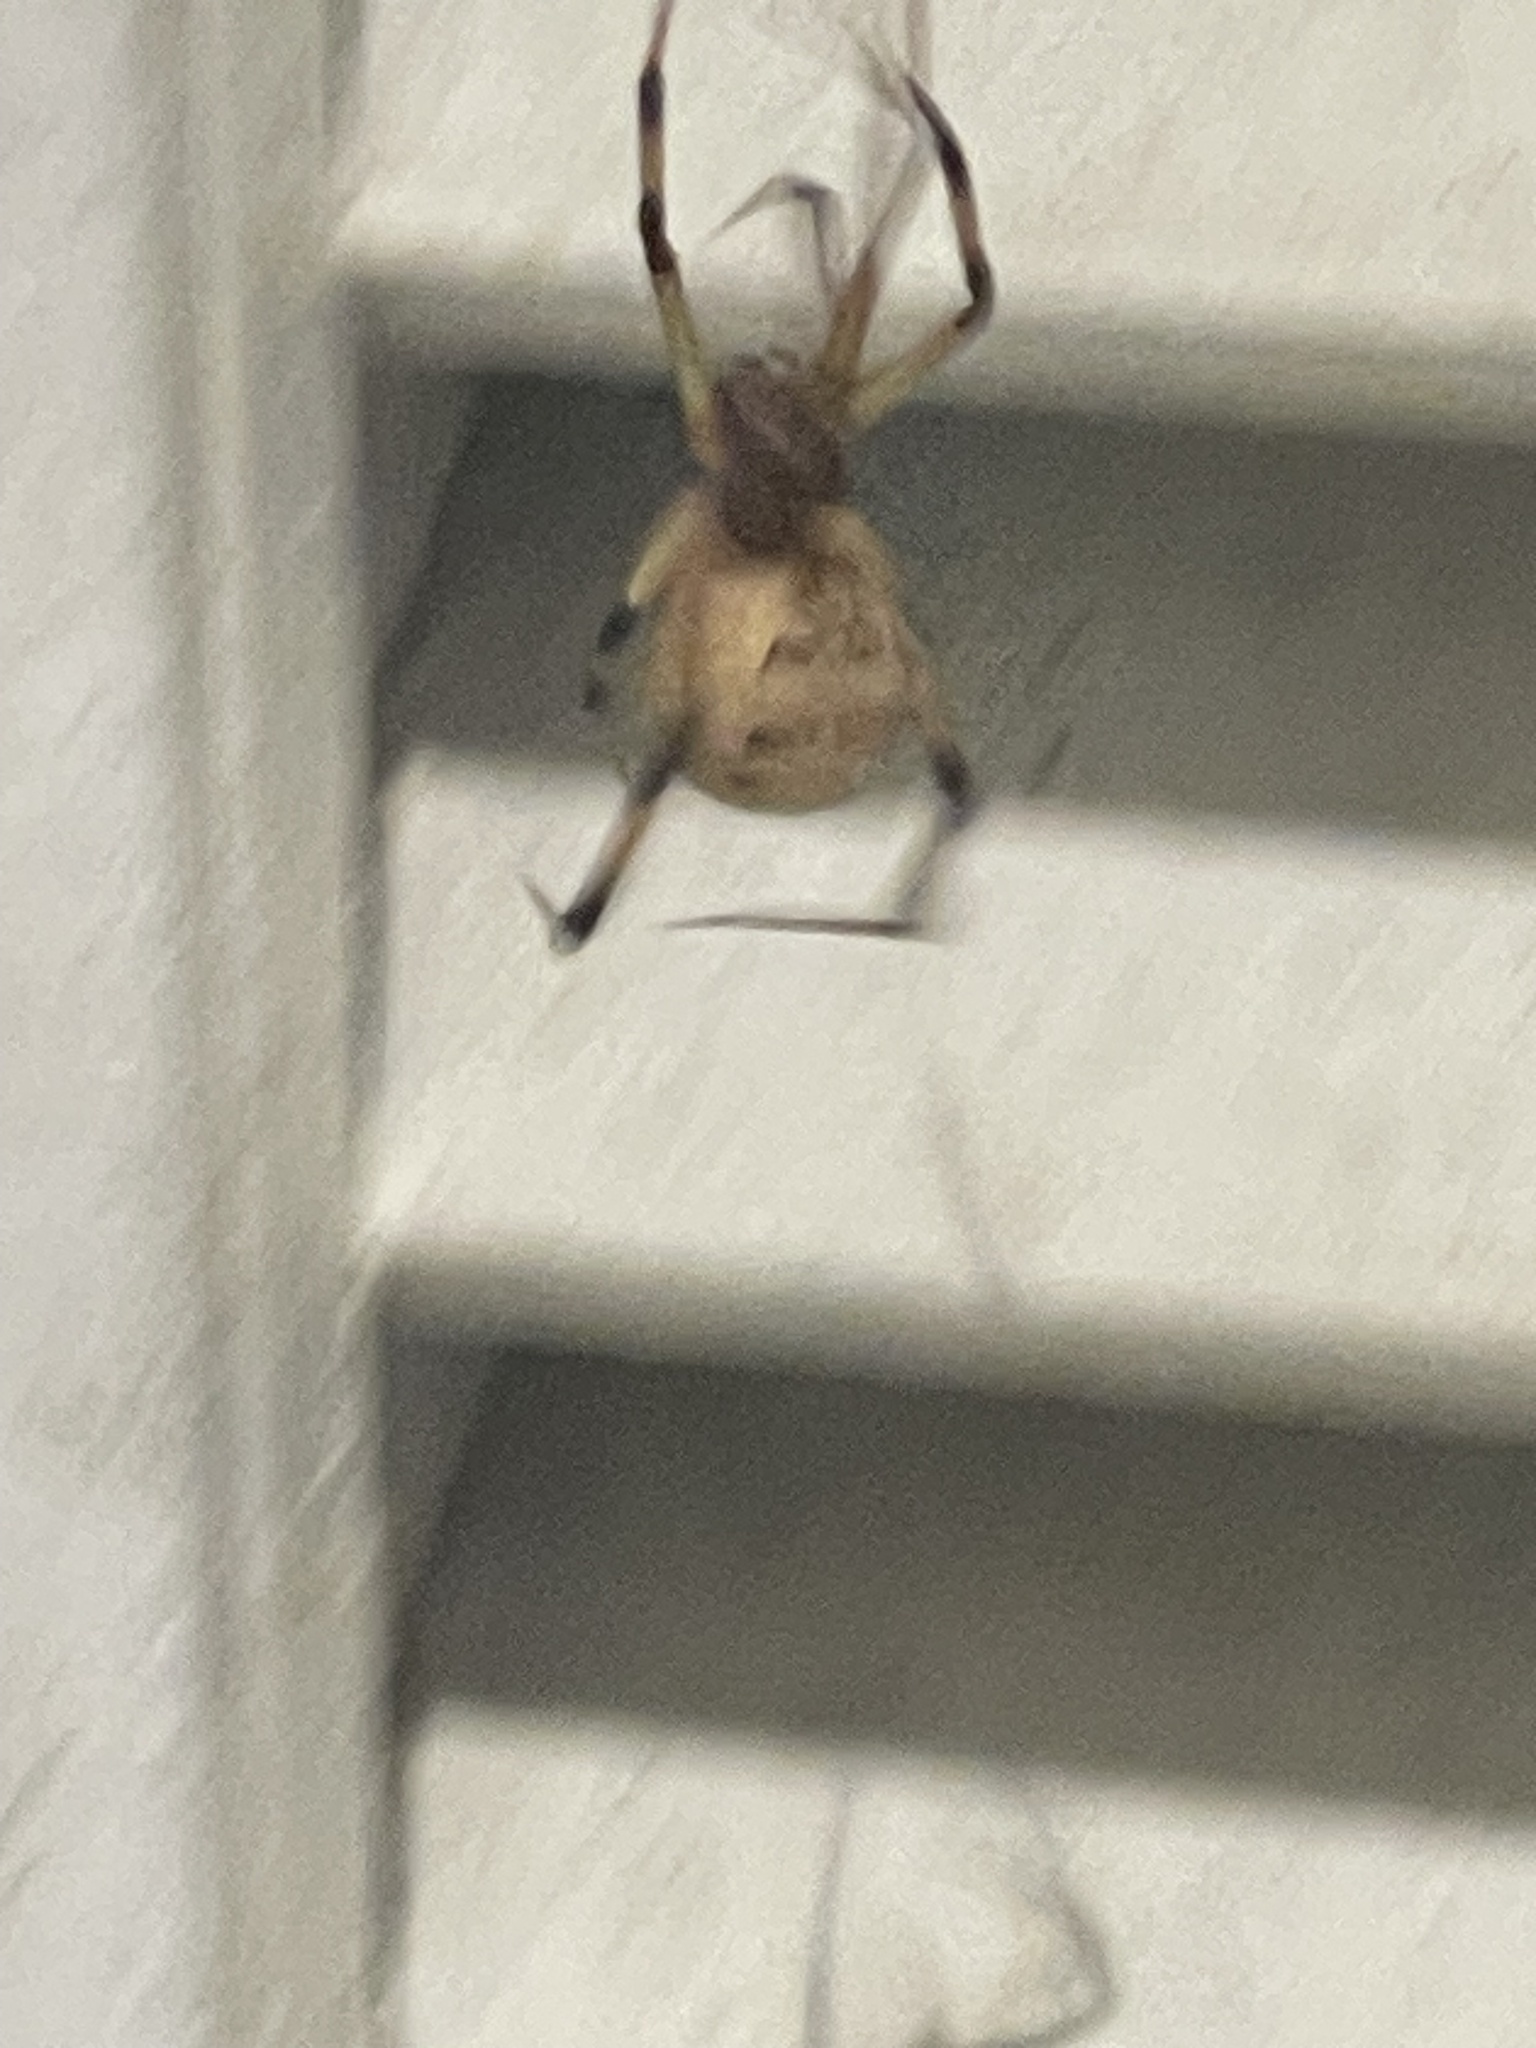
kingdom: Animalia
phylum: Arthropoda
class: Arachnida
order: Araneae
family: Theridiidae
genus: Latrodectus
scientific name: Latrodectus geometricus
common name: Brown widow spider
